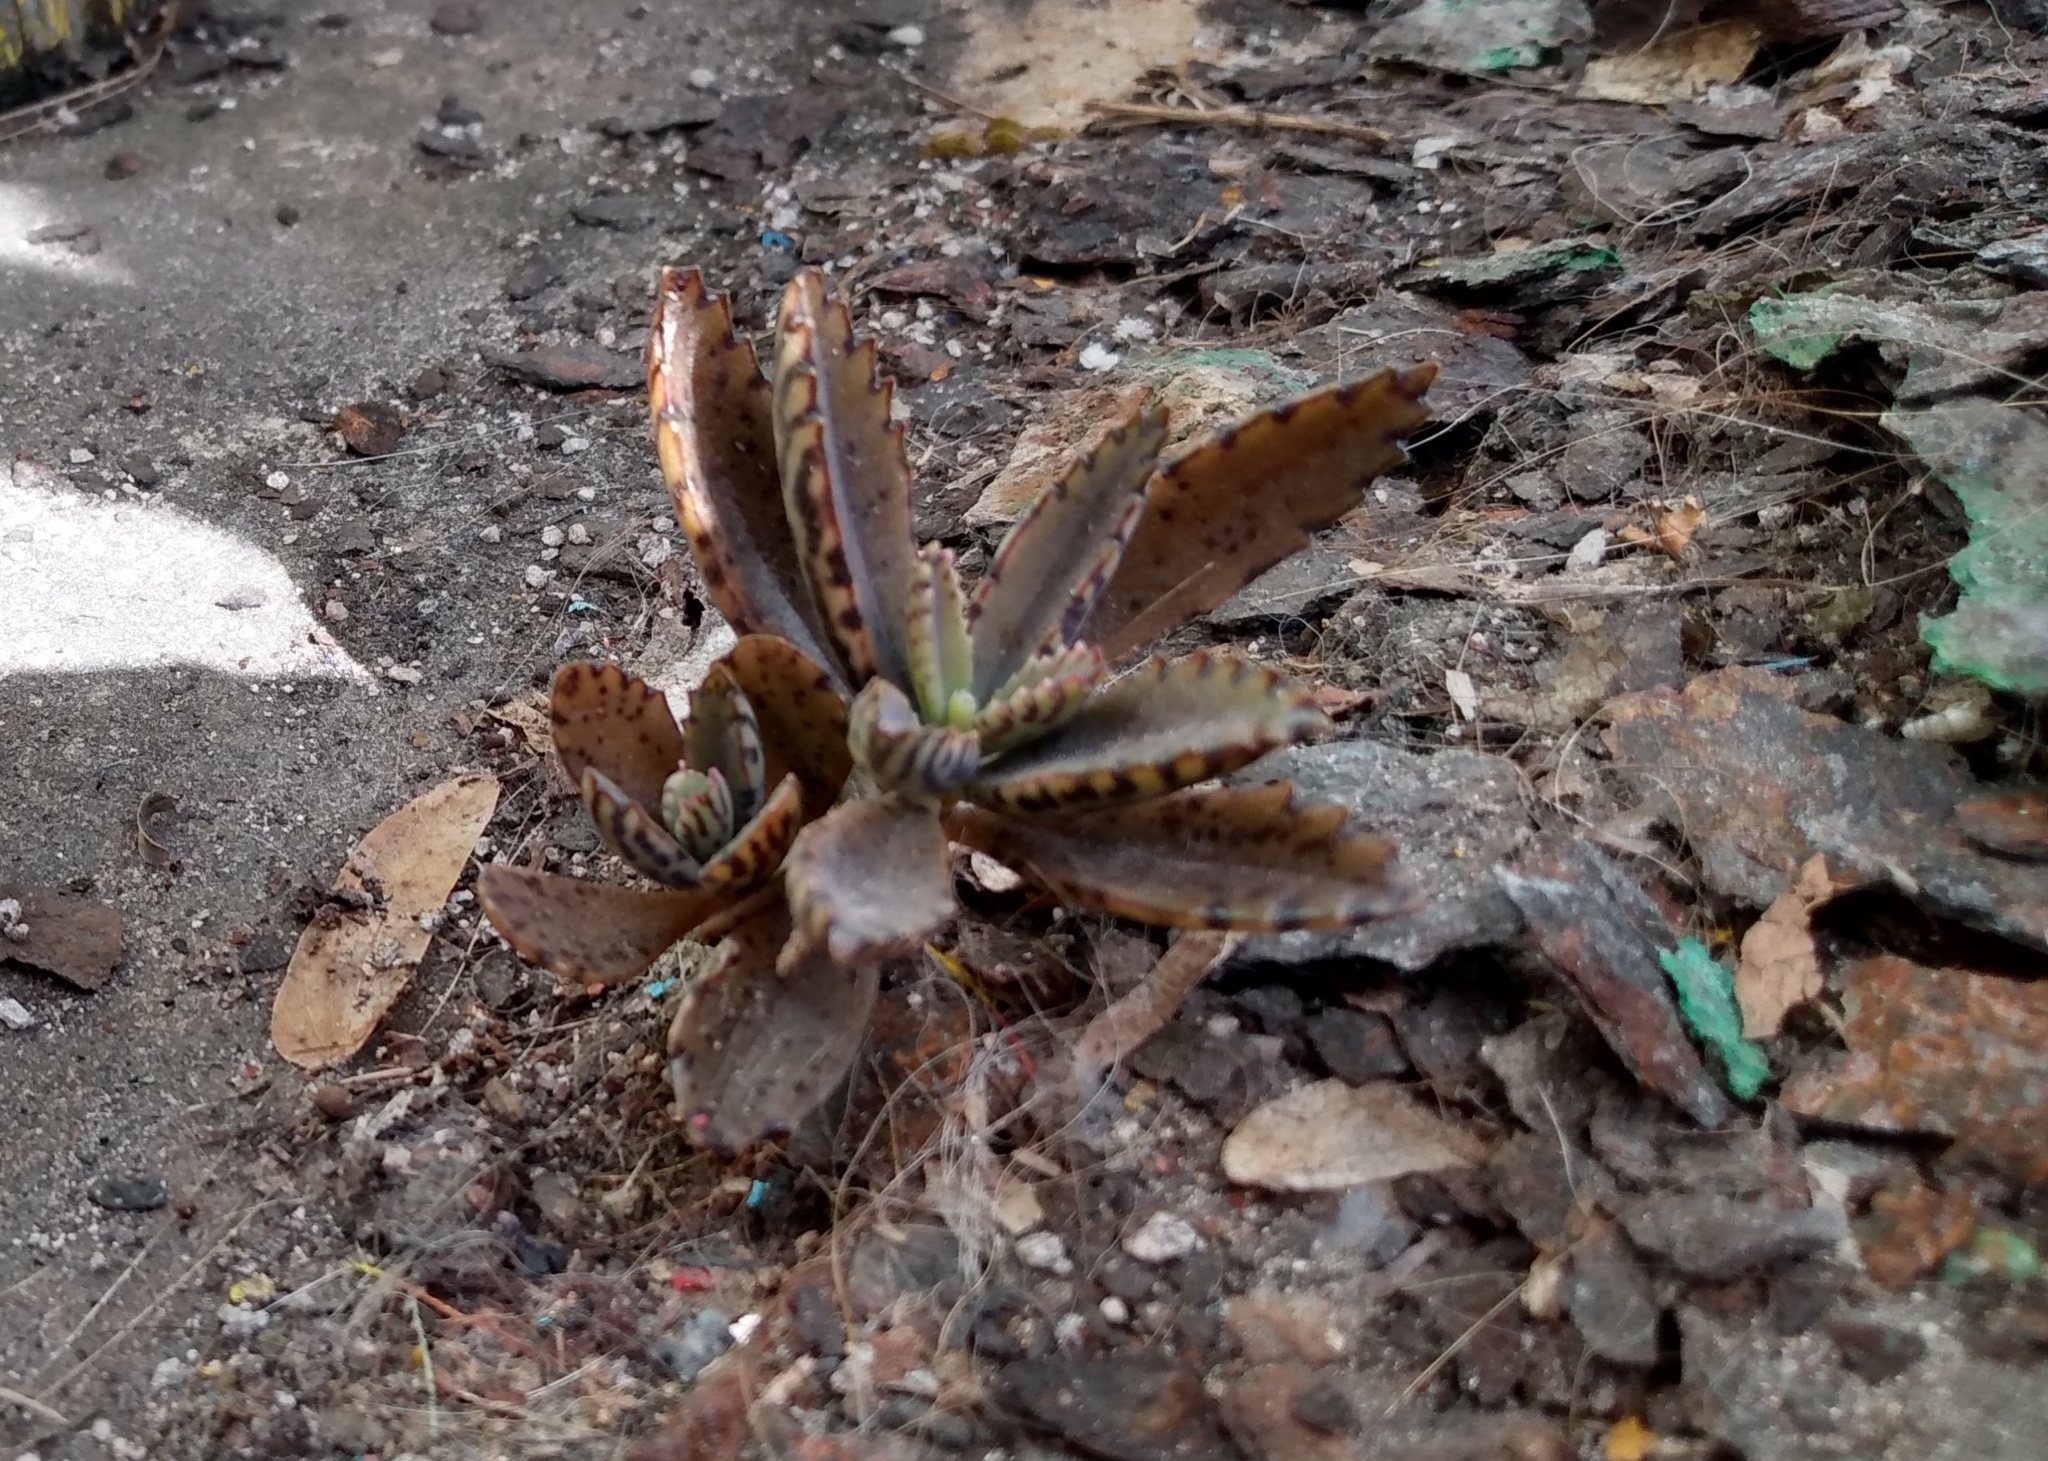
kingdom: Plantae
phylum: Tracheophyta
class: Magnoliopsida
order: Saxifragales
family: Crassulaceae
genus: Kalanchoe
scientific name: Kalanchoe houghtonii
